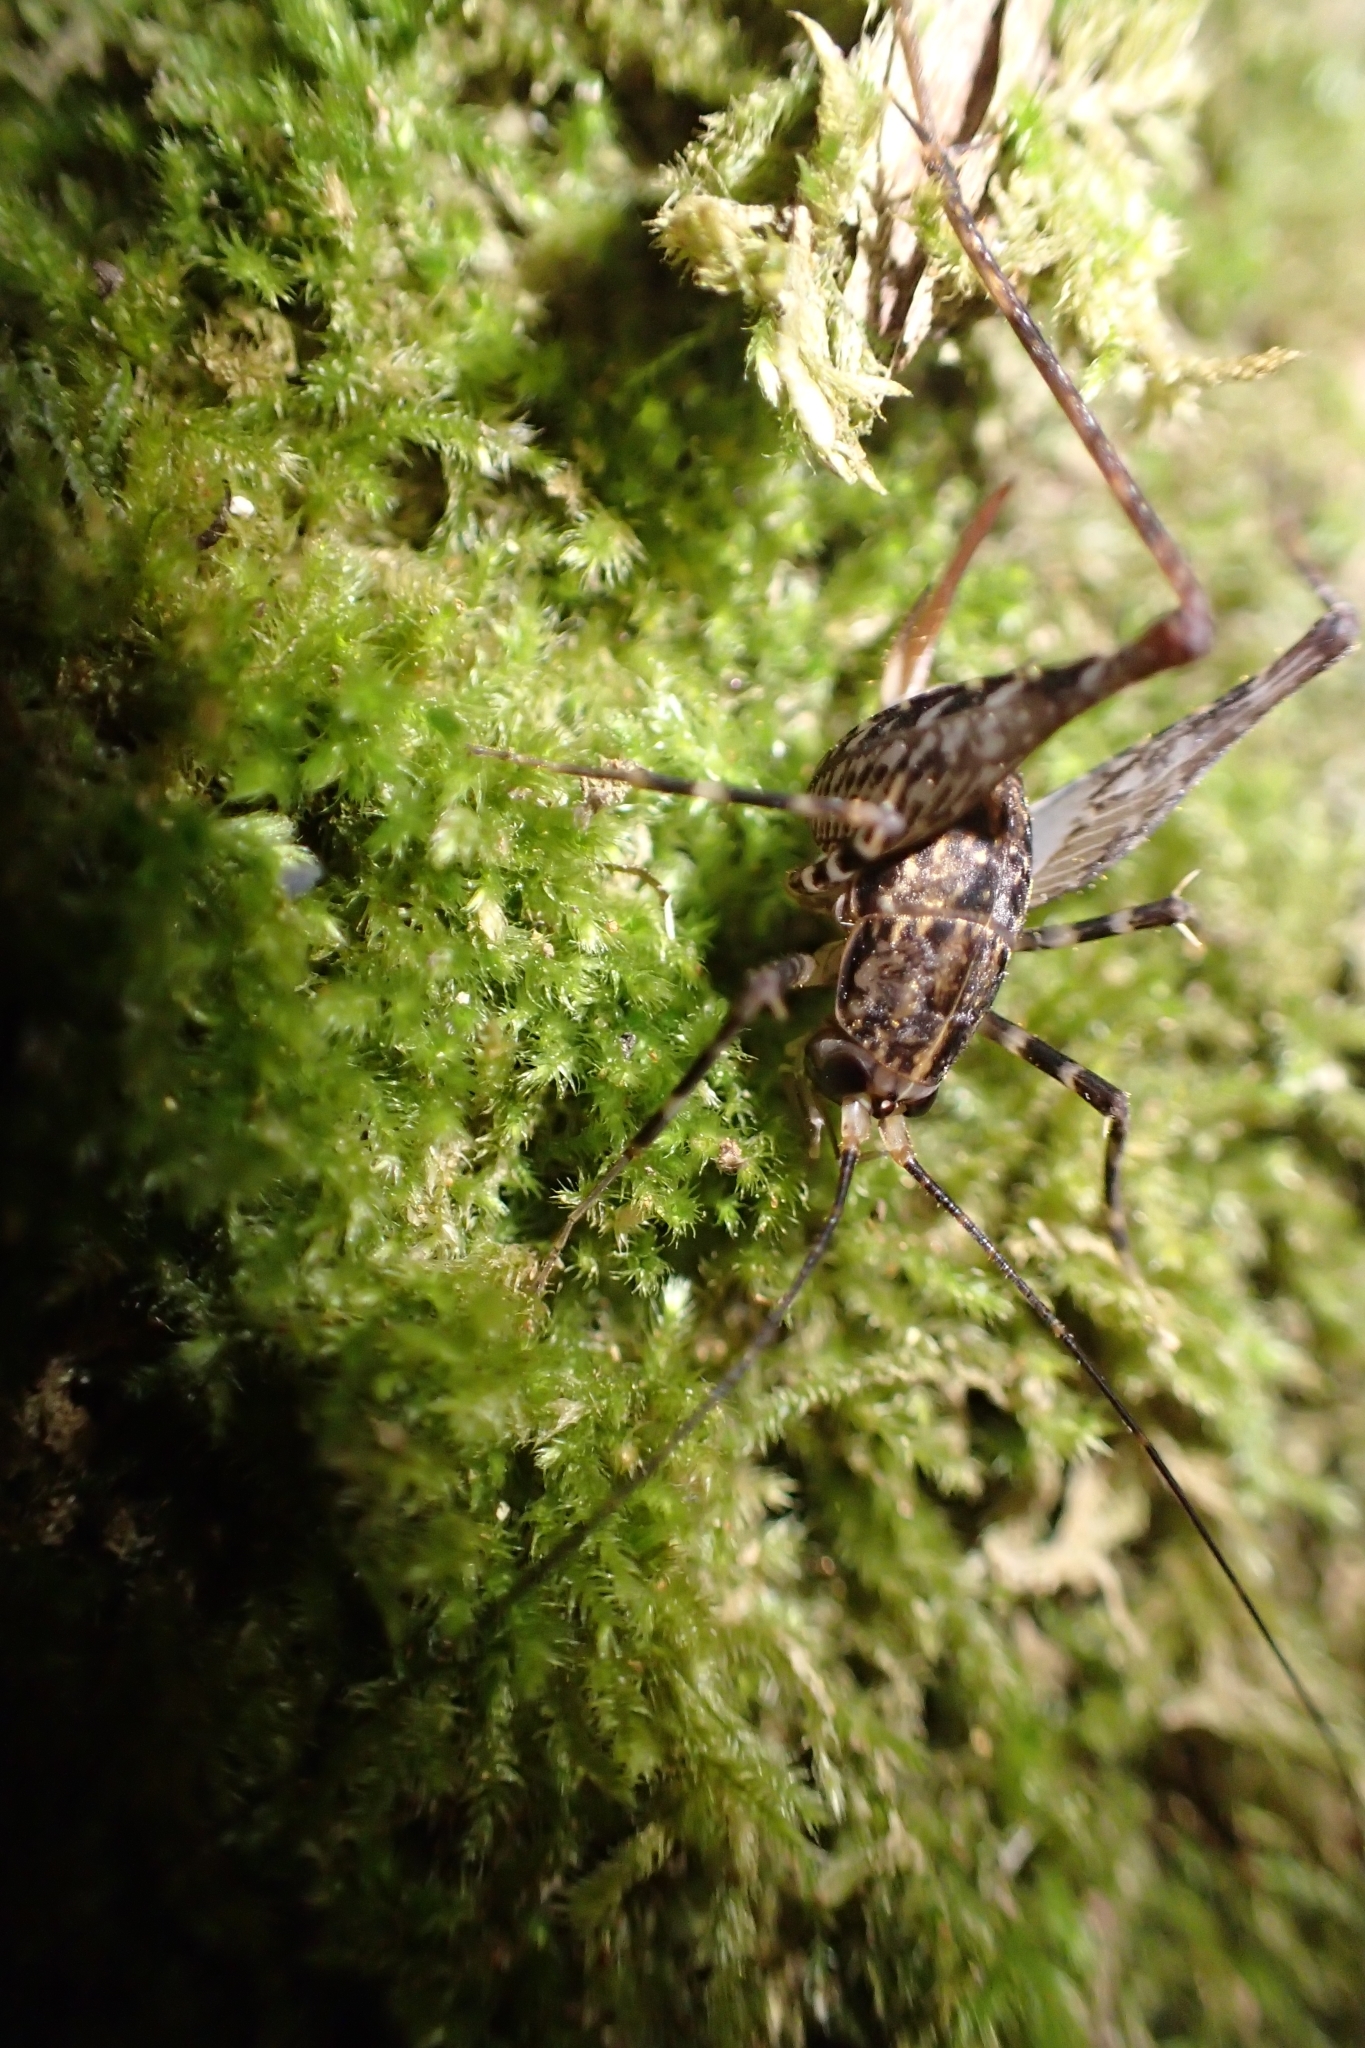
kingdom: Animalia
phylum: Arthropoda
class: Insecta
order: Orthoptera
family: Rhaphidophoridae
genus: Pleioplectron
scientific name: Pleioplectron hudsoni
